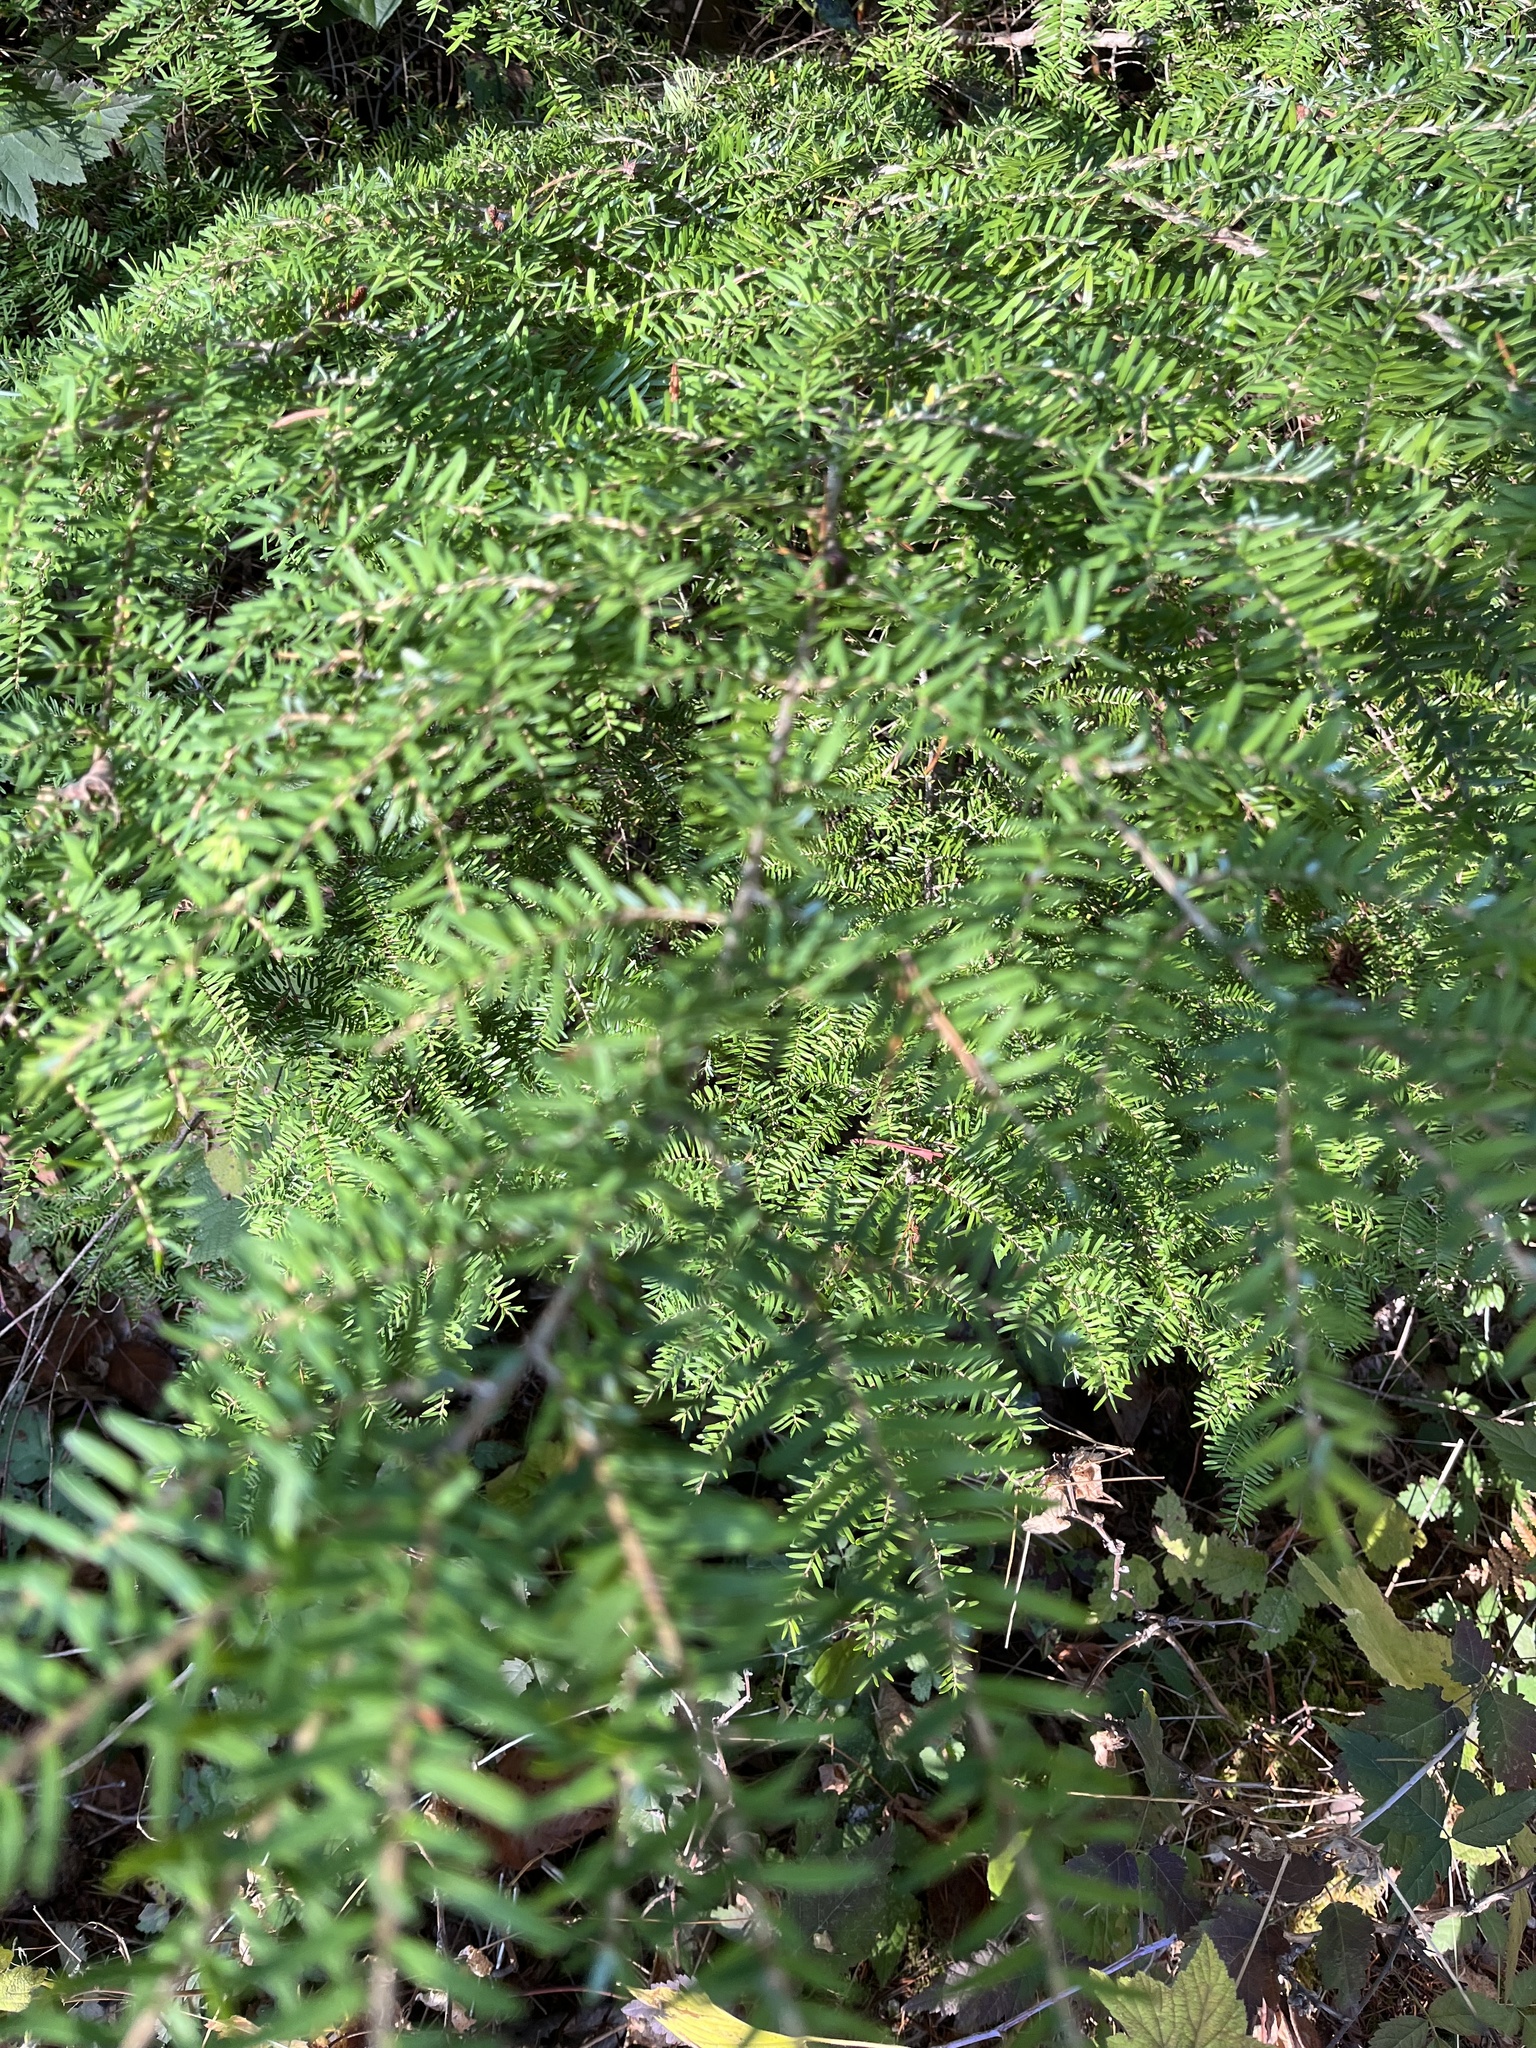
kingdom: Plantae
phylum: Tracheophyta
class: Pinopsida
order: Pinales
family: Pinaceae
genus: Tsuga
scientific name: Tsuga heterophylla
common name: Western hemlock
